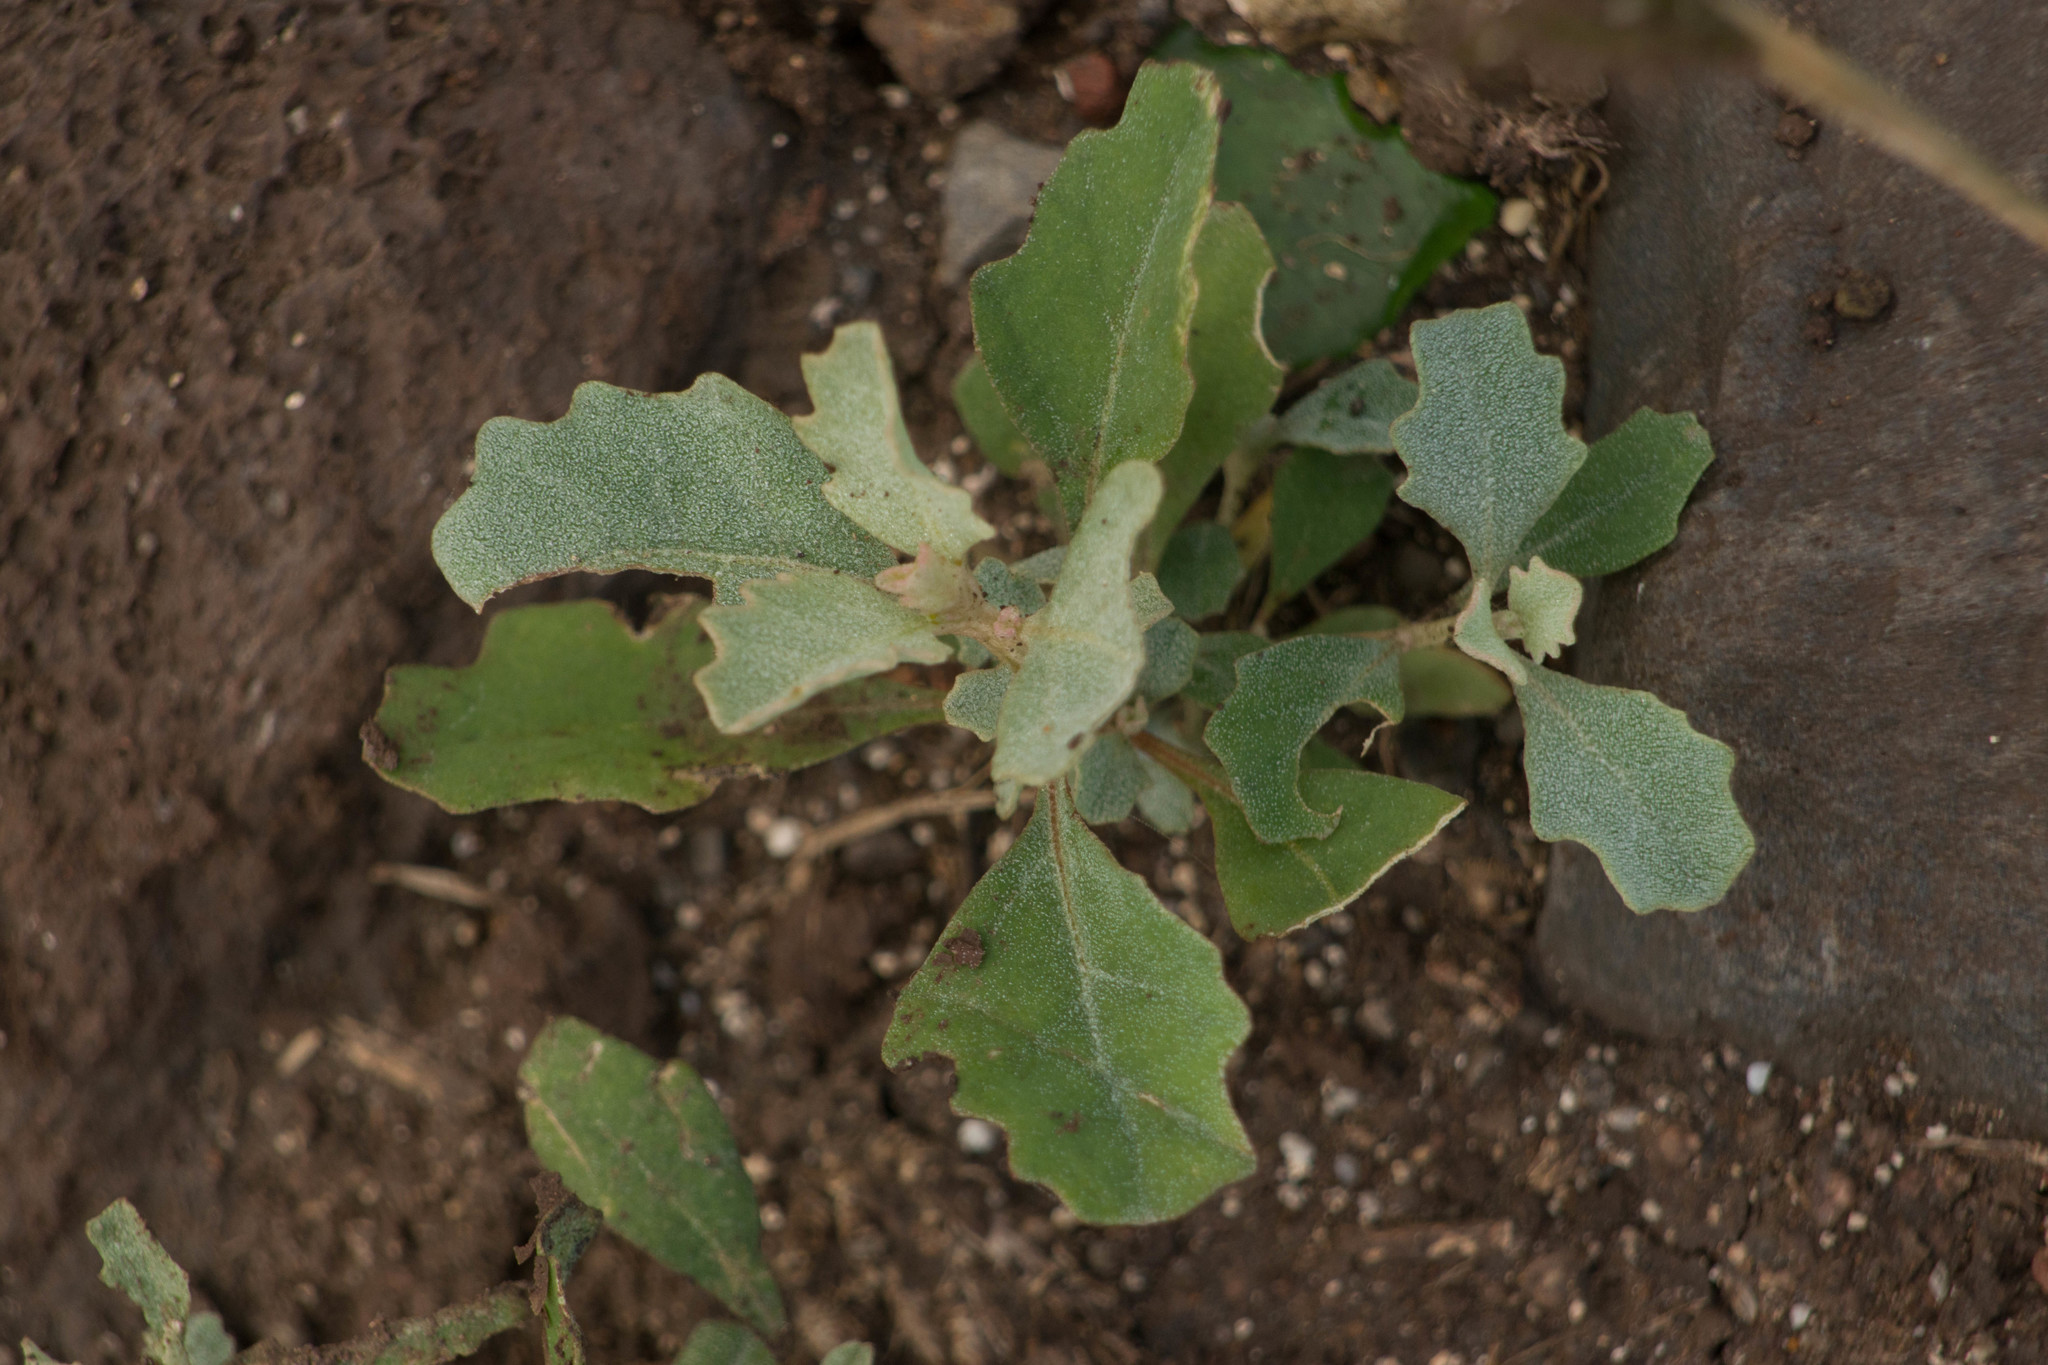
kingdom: Plantae
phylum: Tracheophyta
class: Magnoliopsida
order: Caryophyllales
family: Amaranthaceae
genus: Atriplex
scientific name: Atriplex muelleri
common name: Mueller's saltbush
